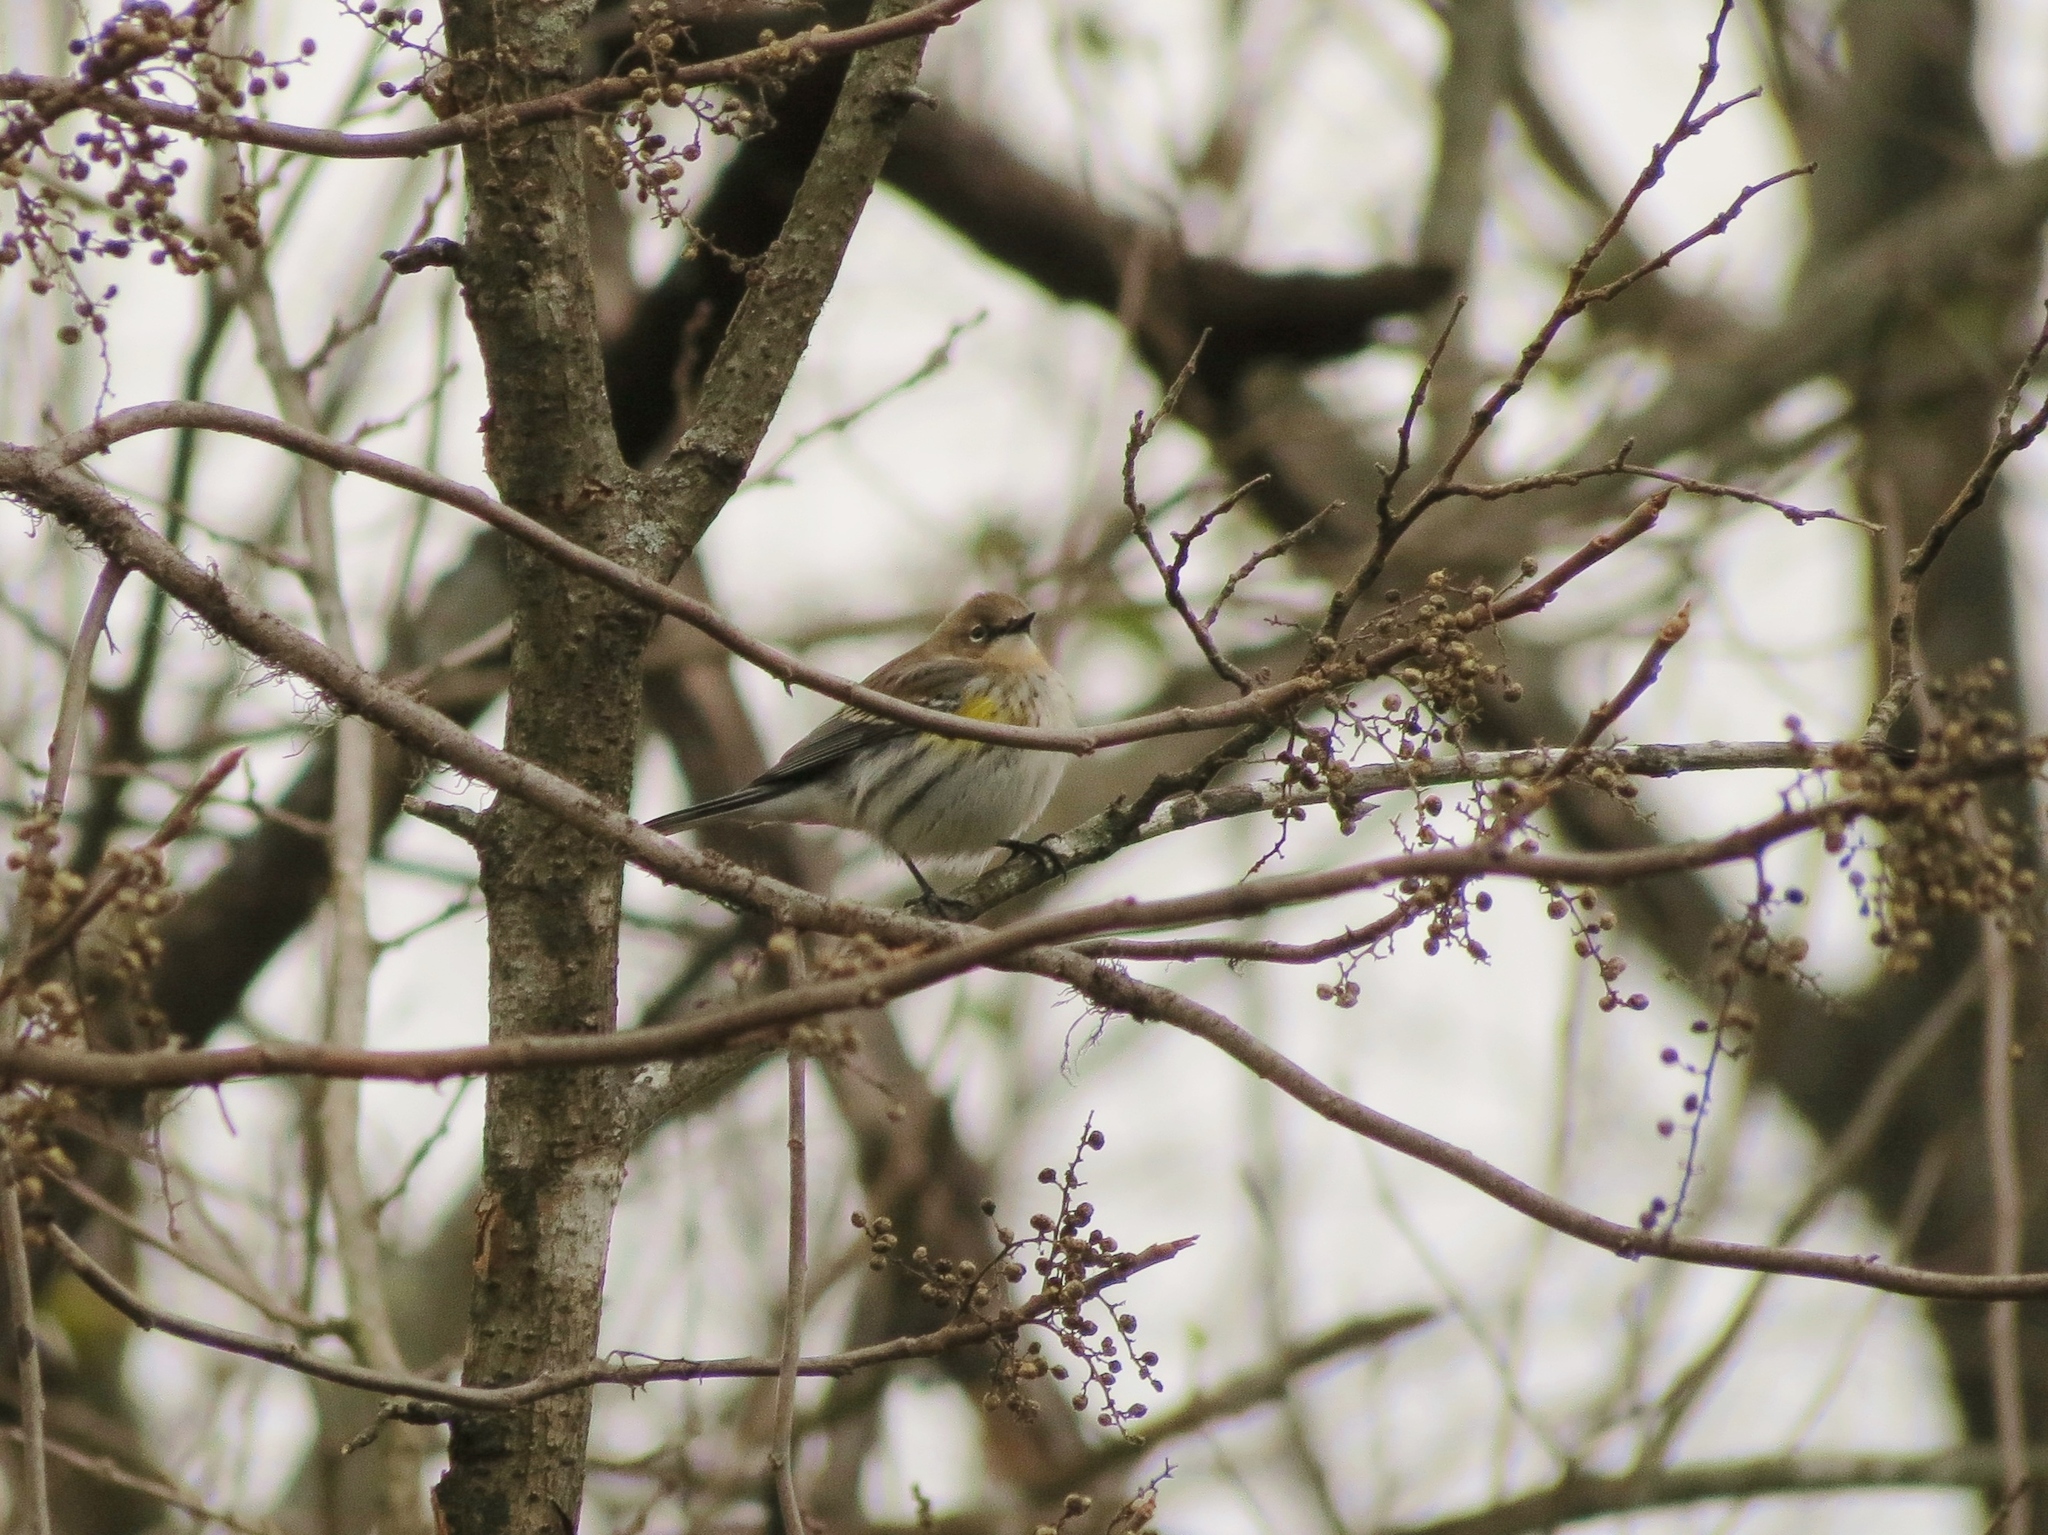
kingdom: Animalia
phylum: Chordata
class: Aves
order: Passeriformes
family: Parulidae
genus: Setophaga
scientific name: Setophaga coronata
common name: Myrtle warbler
